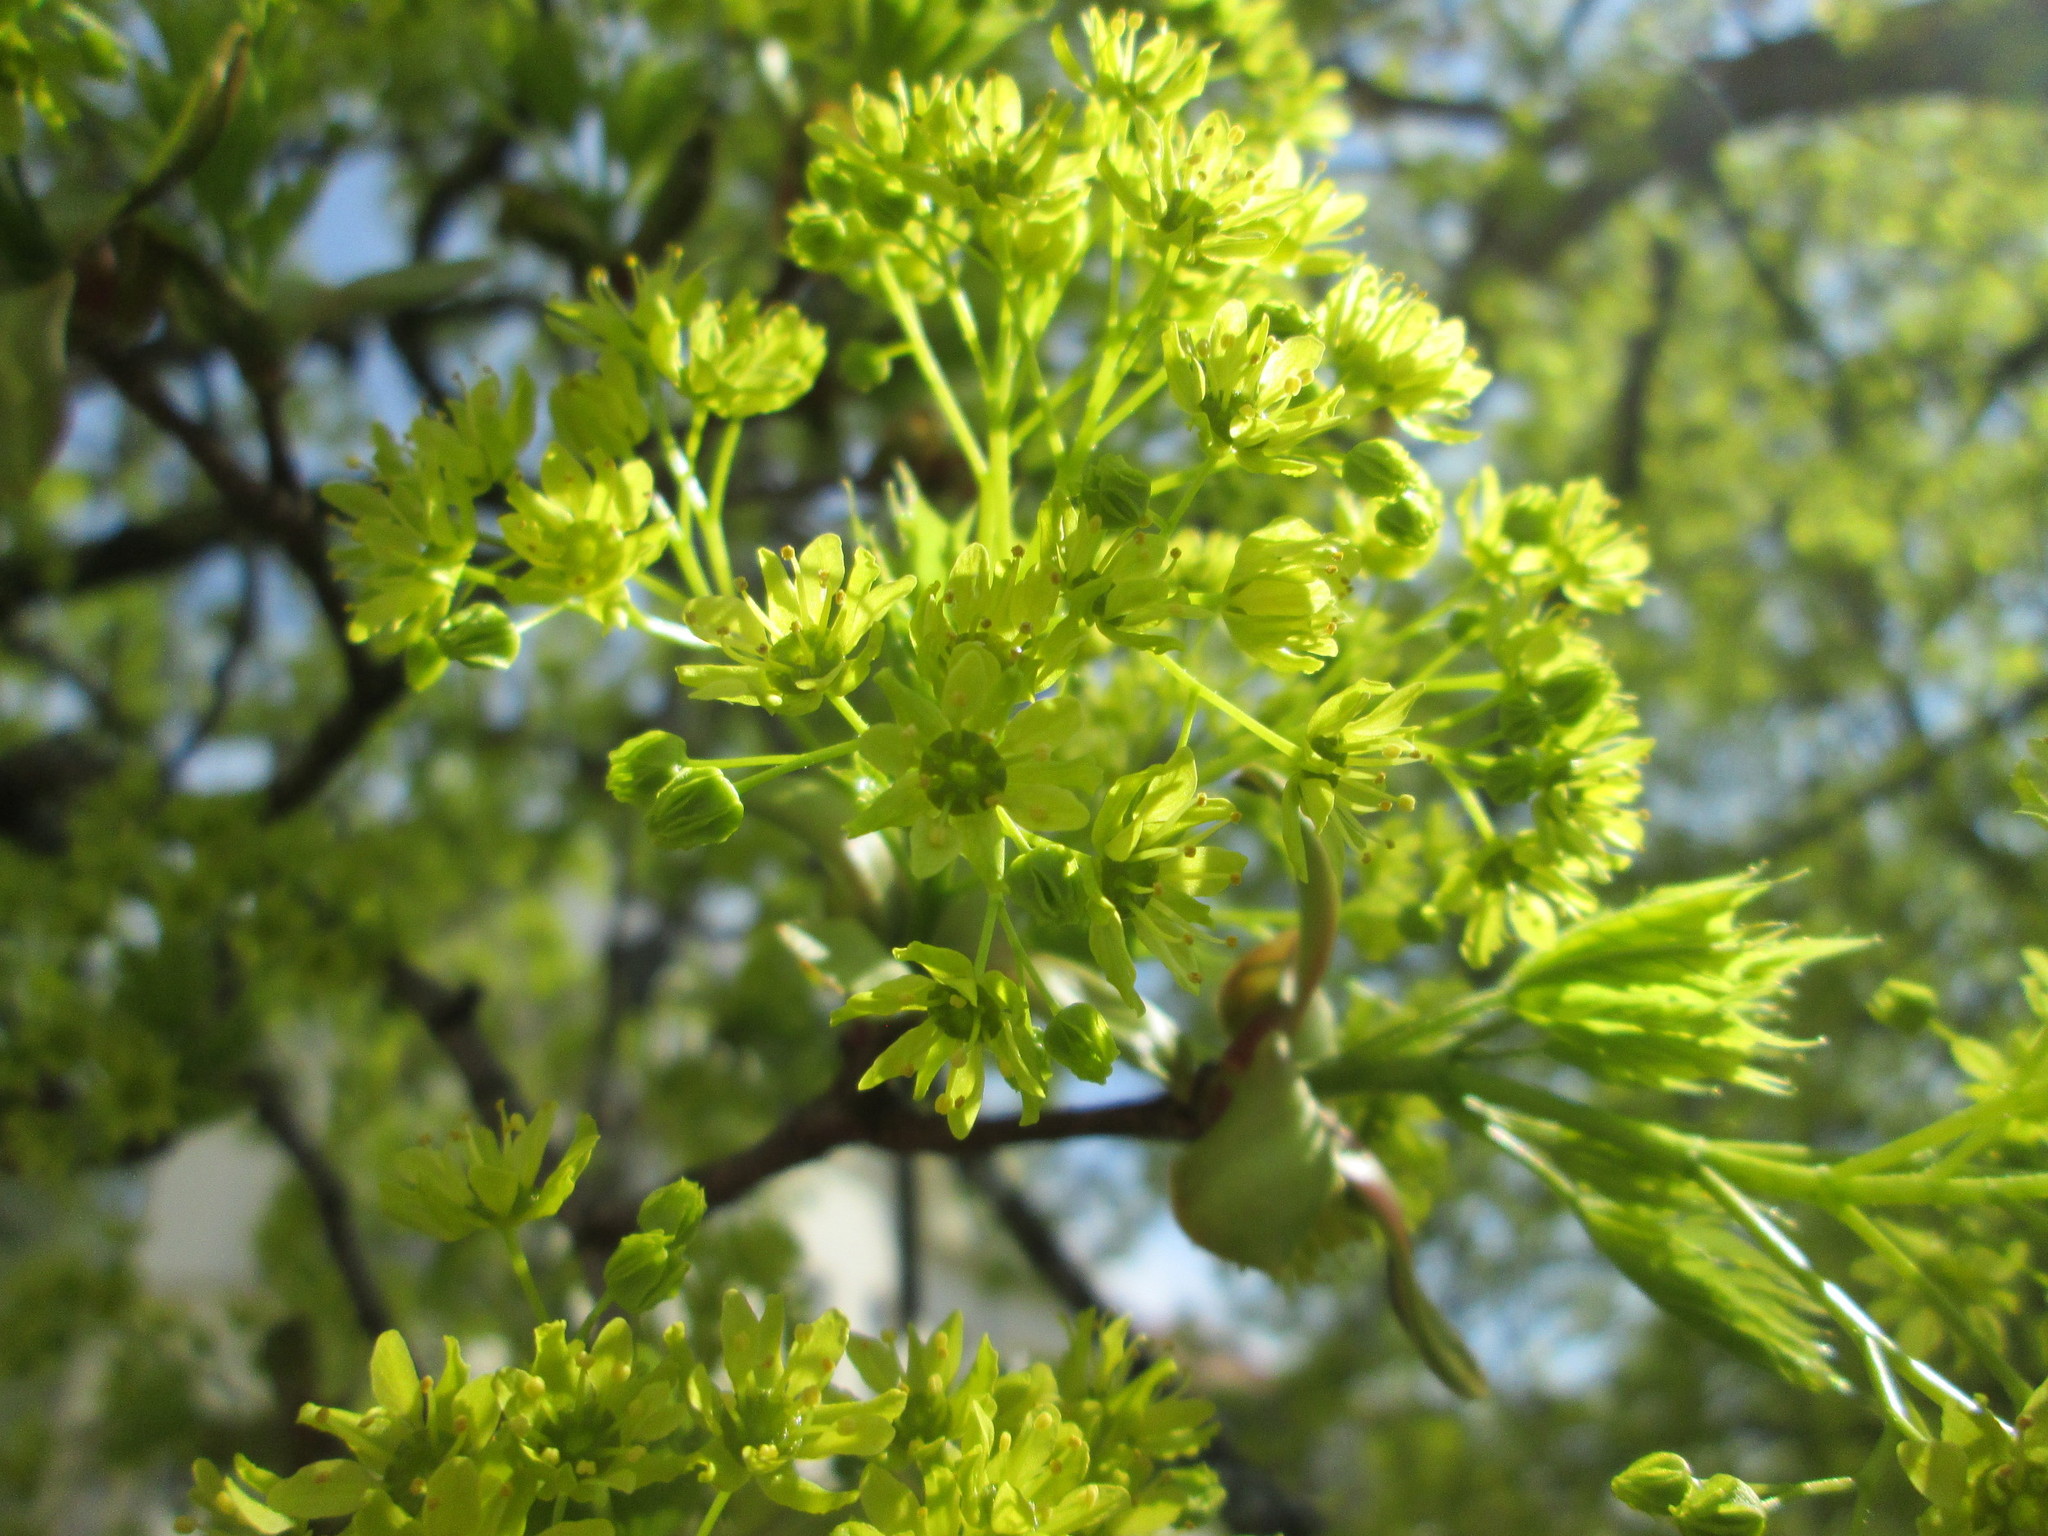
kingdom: Plantae
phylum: Tracheophyta
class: Magnoliopsida
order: Sapindales
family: Sapindaceae
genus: Acer
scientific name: Acer platanoides
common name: Norway maple
